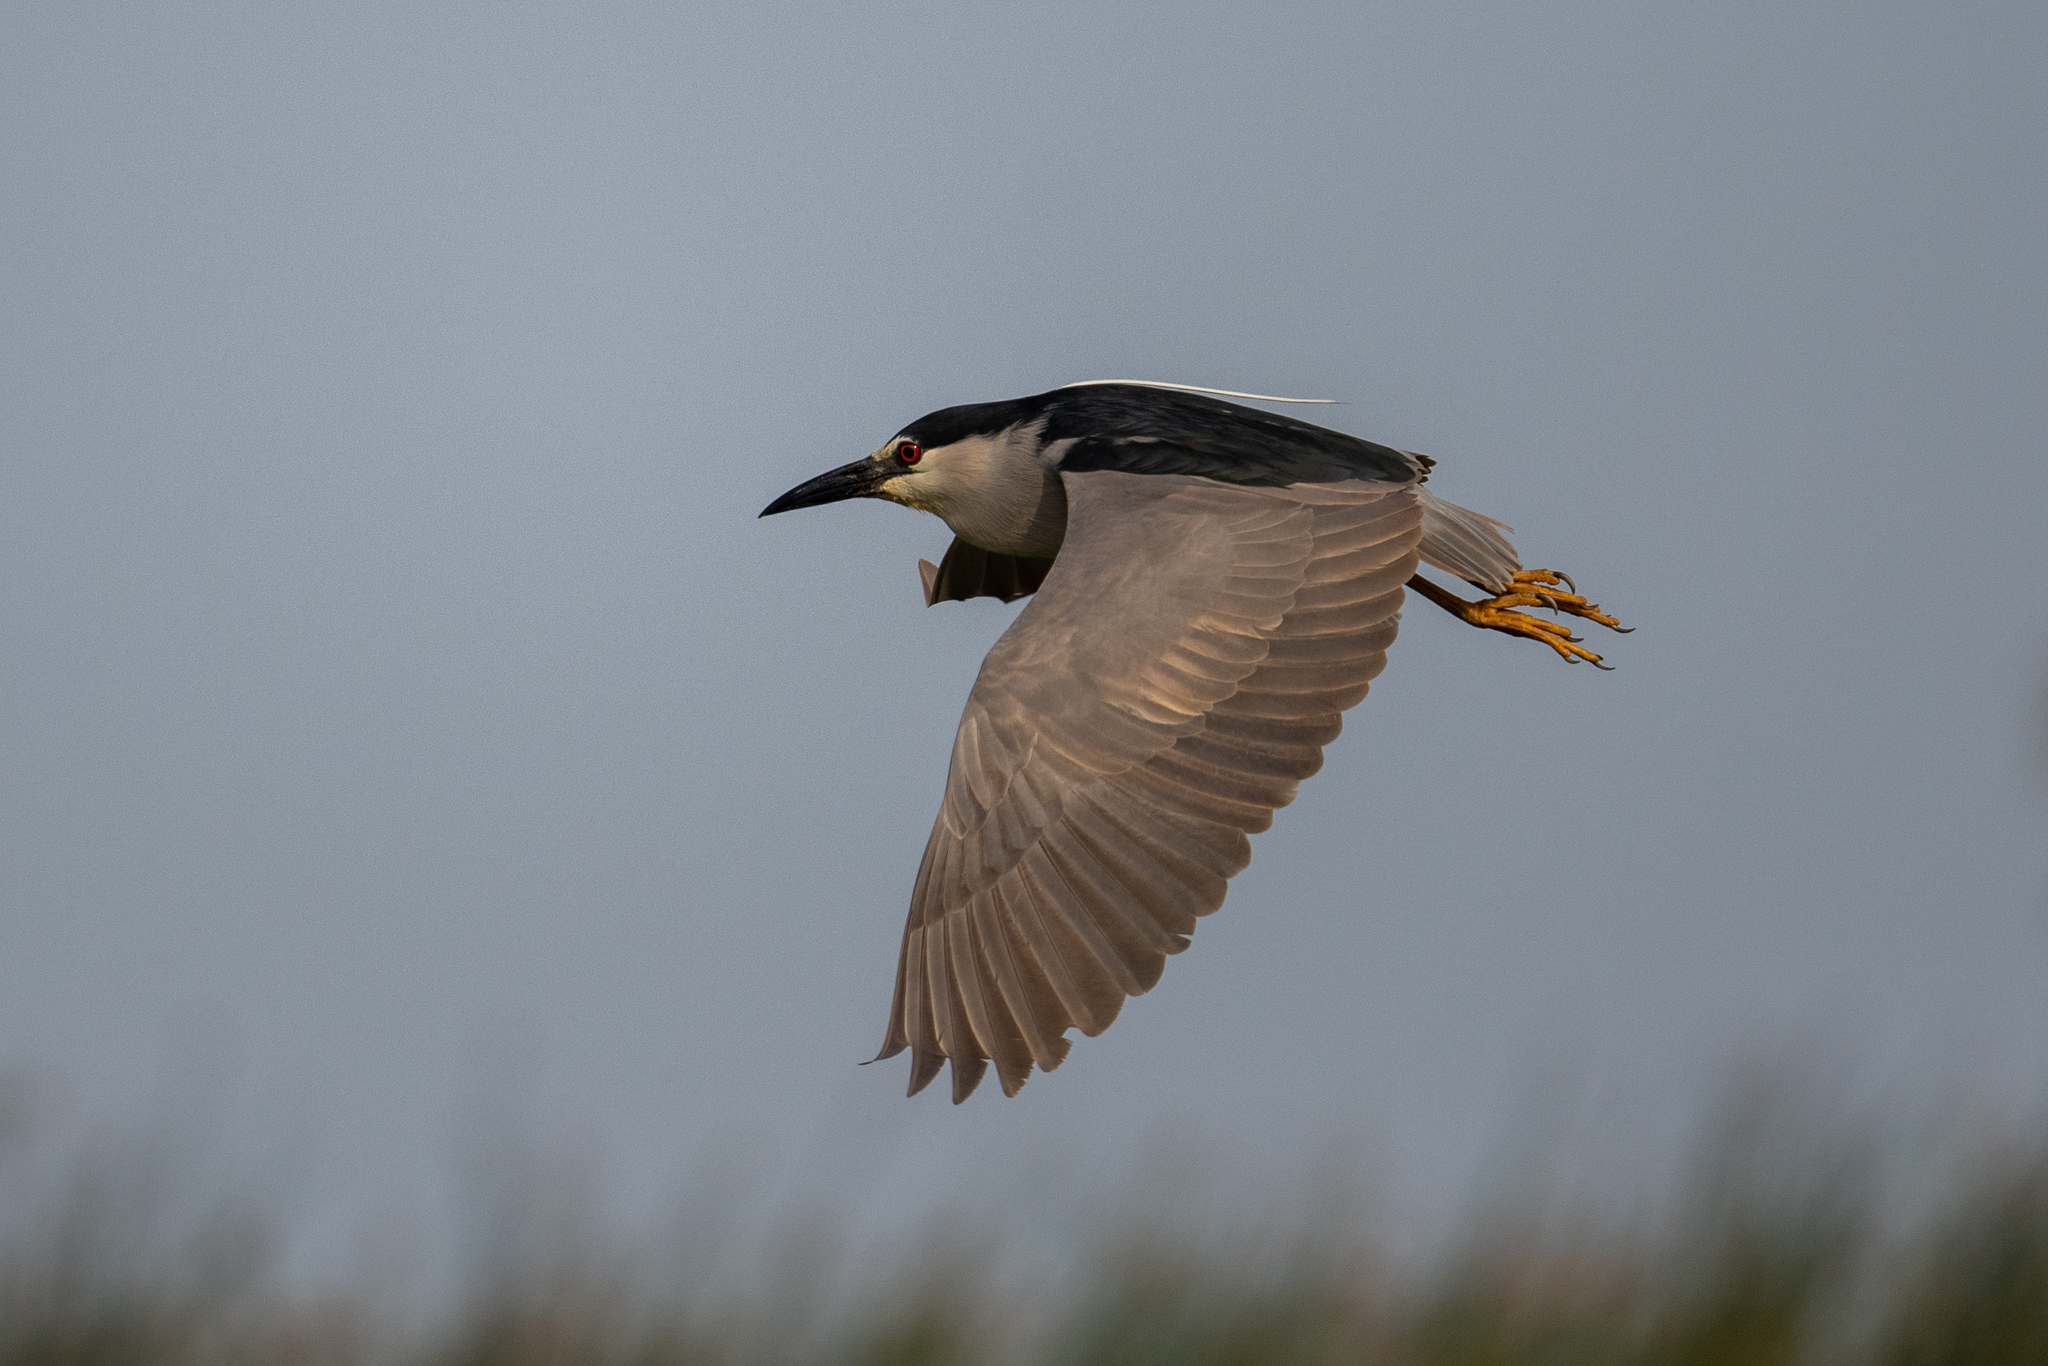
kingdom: Animalia
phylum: Chordata
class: Aves
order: Pelecaniformes
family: Ardeidae
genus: Nycticorax
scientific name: Nycticorax nycticorax
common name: Black-crowned night heron
